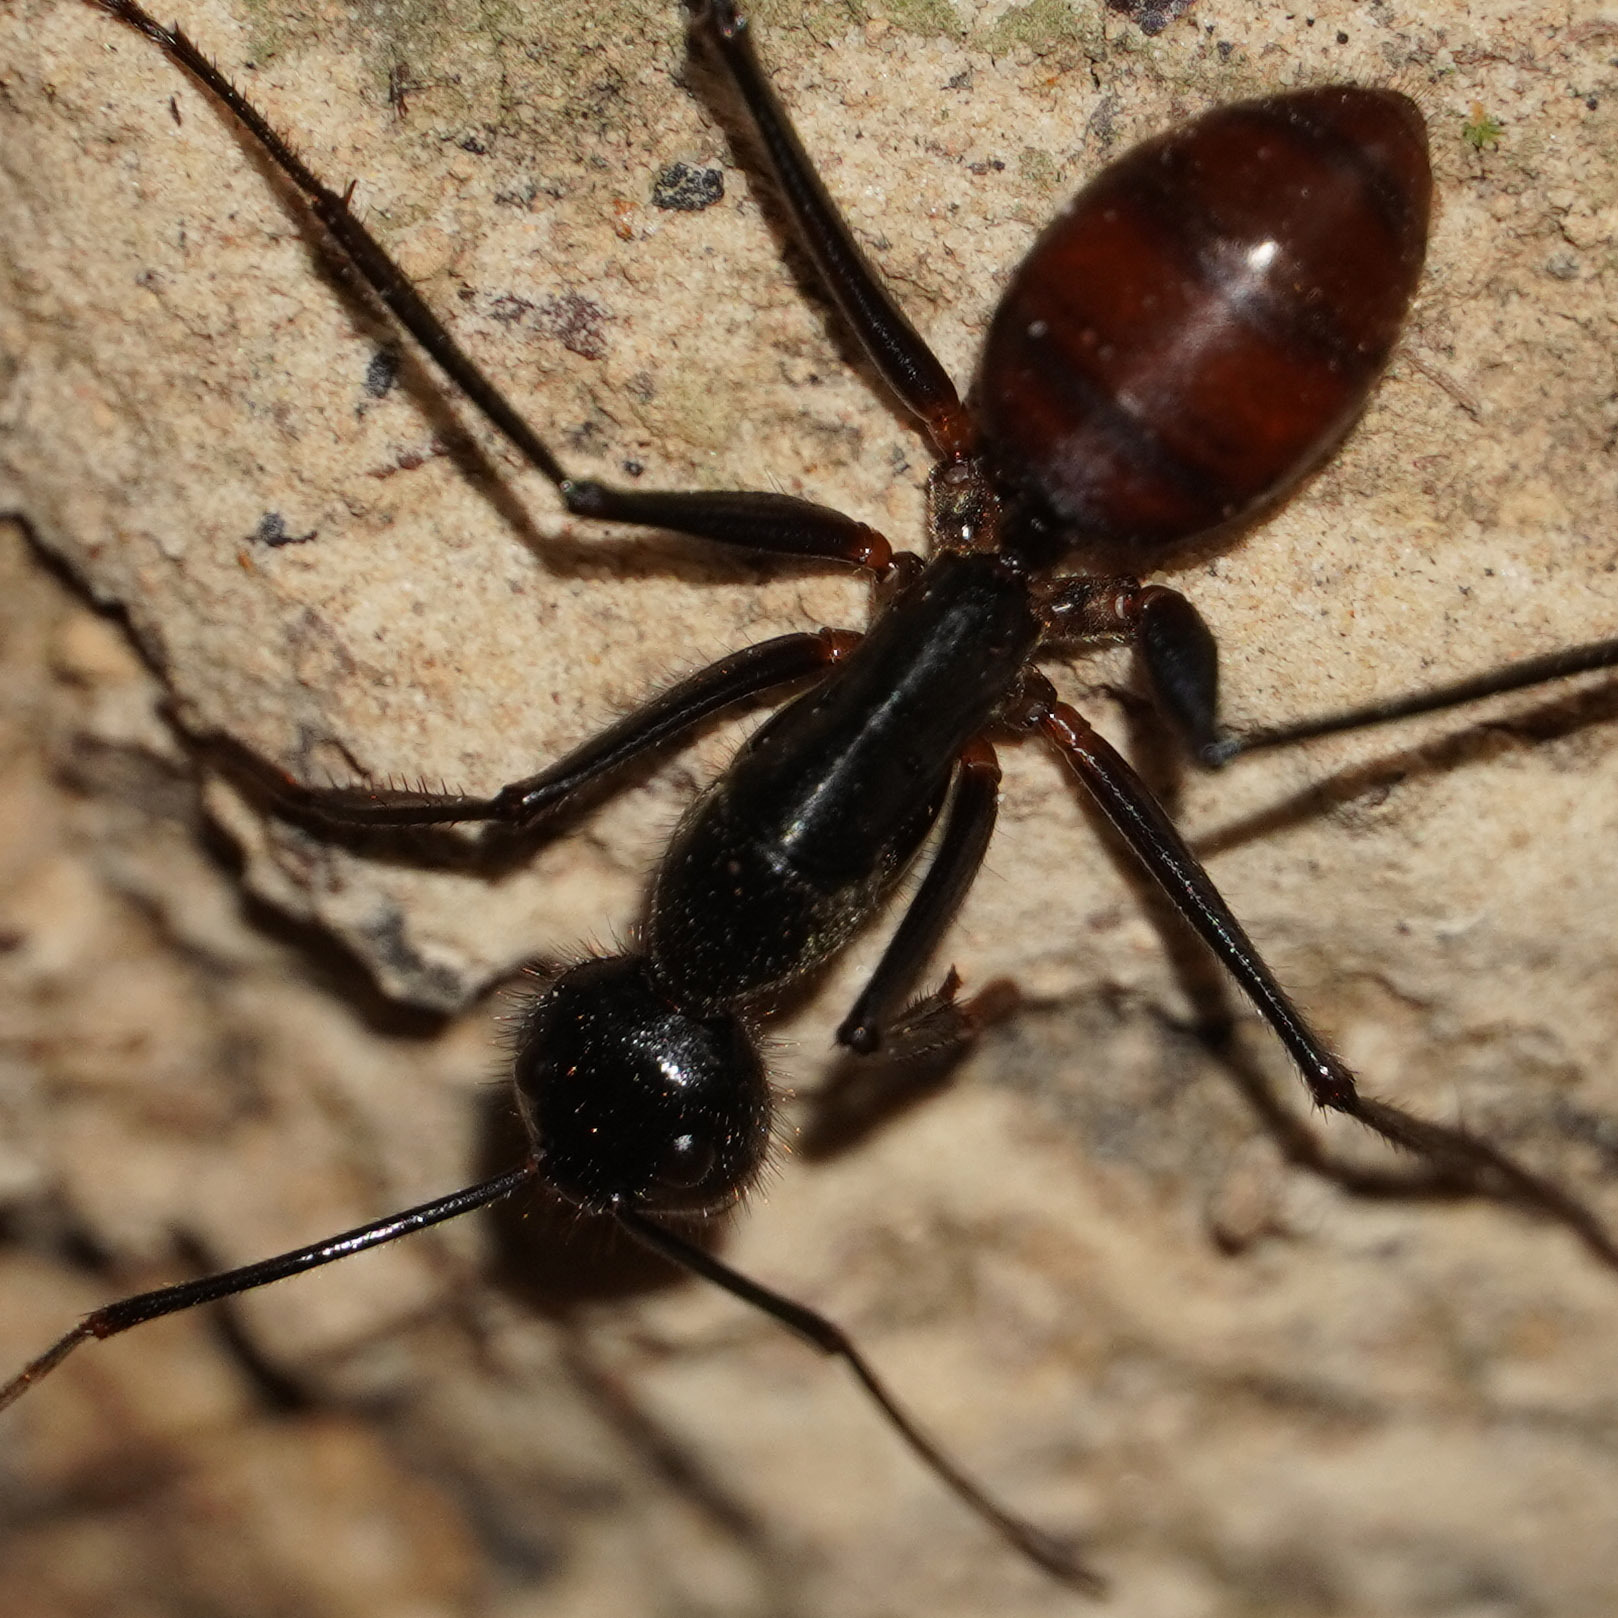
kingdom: Animalia
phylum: Arthropoda
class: Insecta
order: Hymenoptera
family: Formicidae
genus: Dinomyrmex
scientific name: Dinomyrmex
